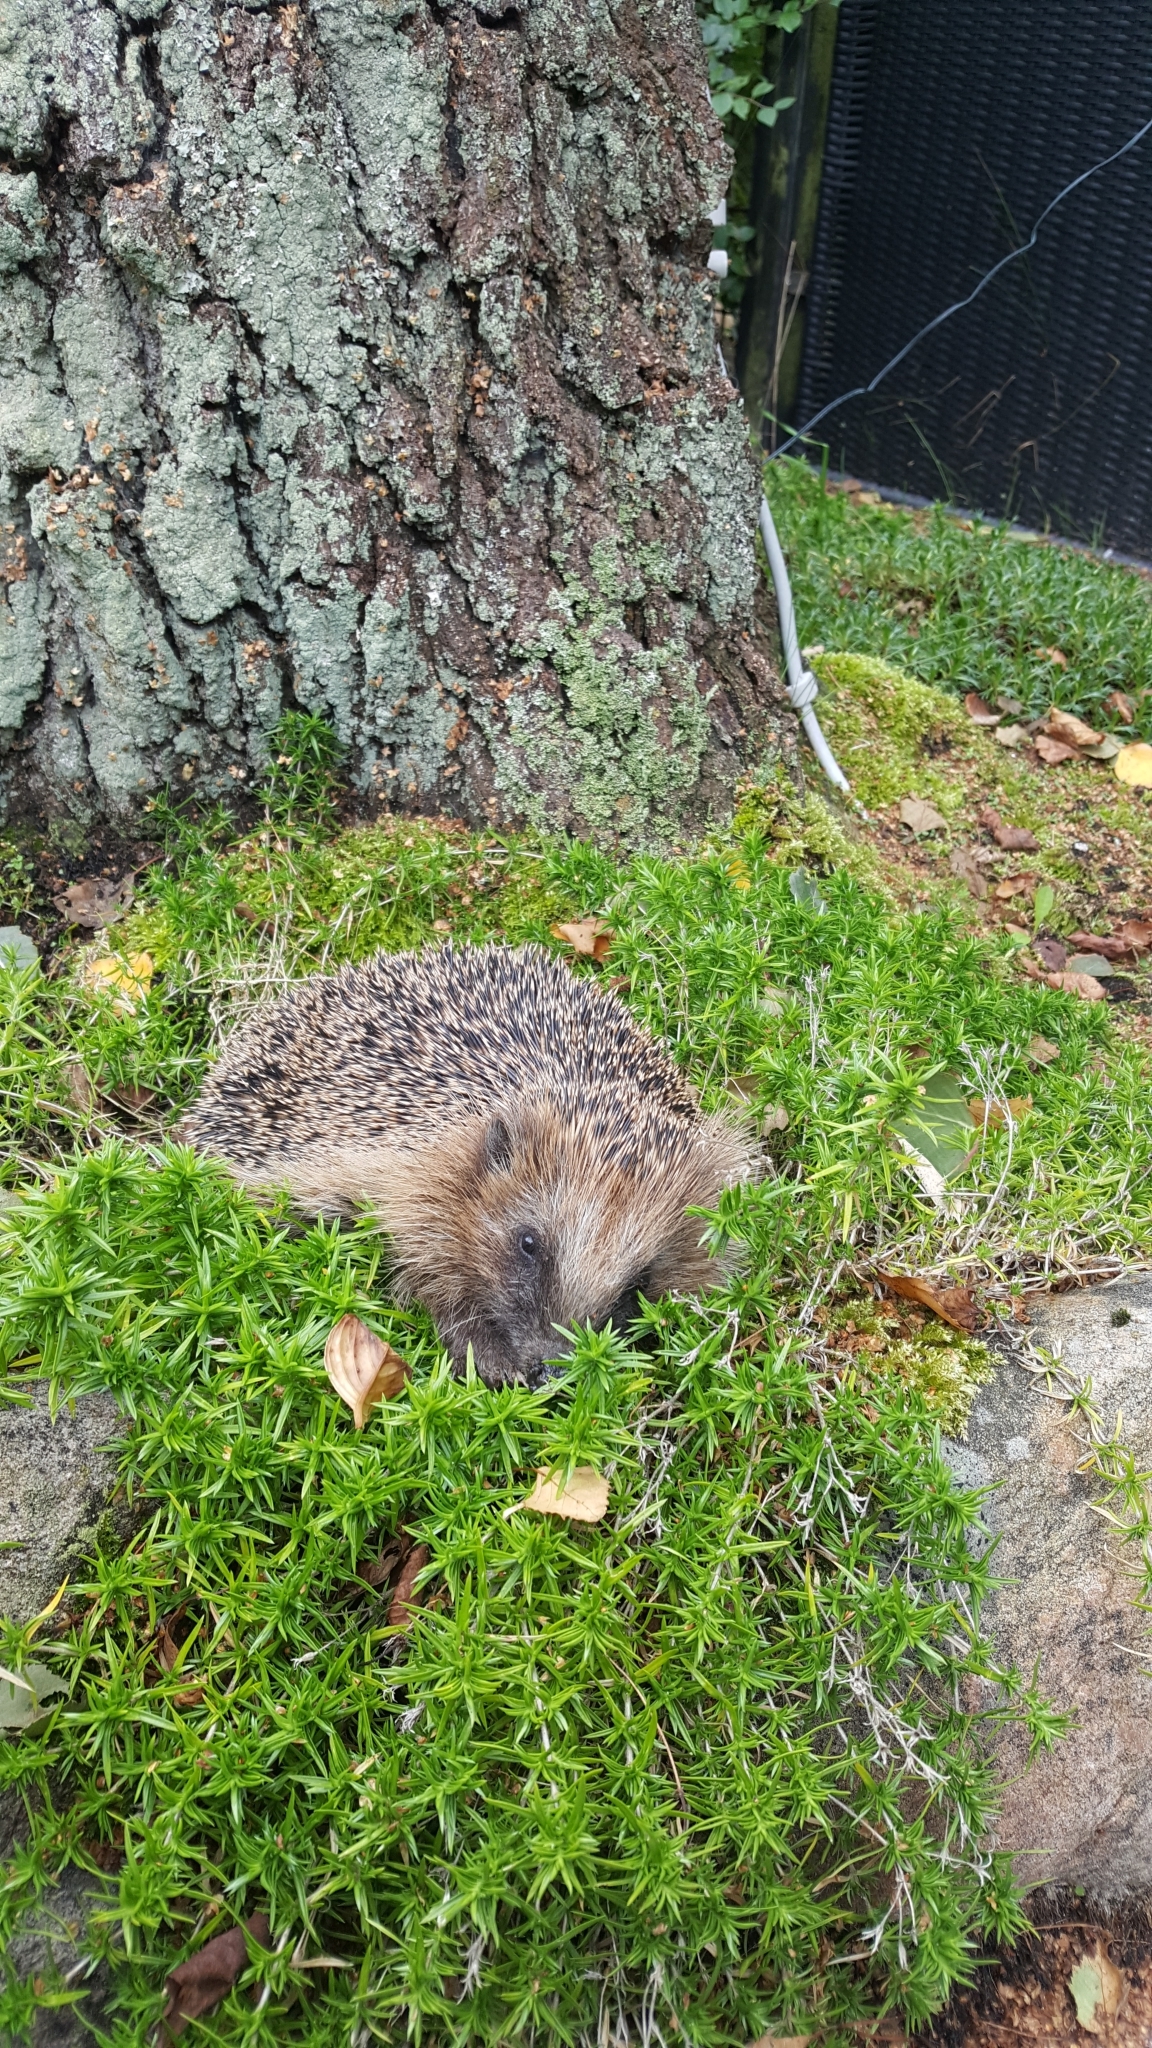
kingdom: Animalia
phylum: Chordata
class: Mammalia
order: Erinaceomorpha
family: Erinaceidae
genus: Erinaceus
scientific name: Erinaceus europaeus
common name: West european hedgehog
